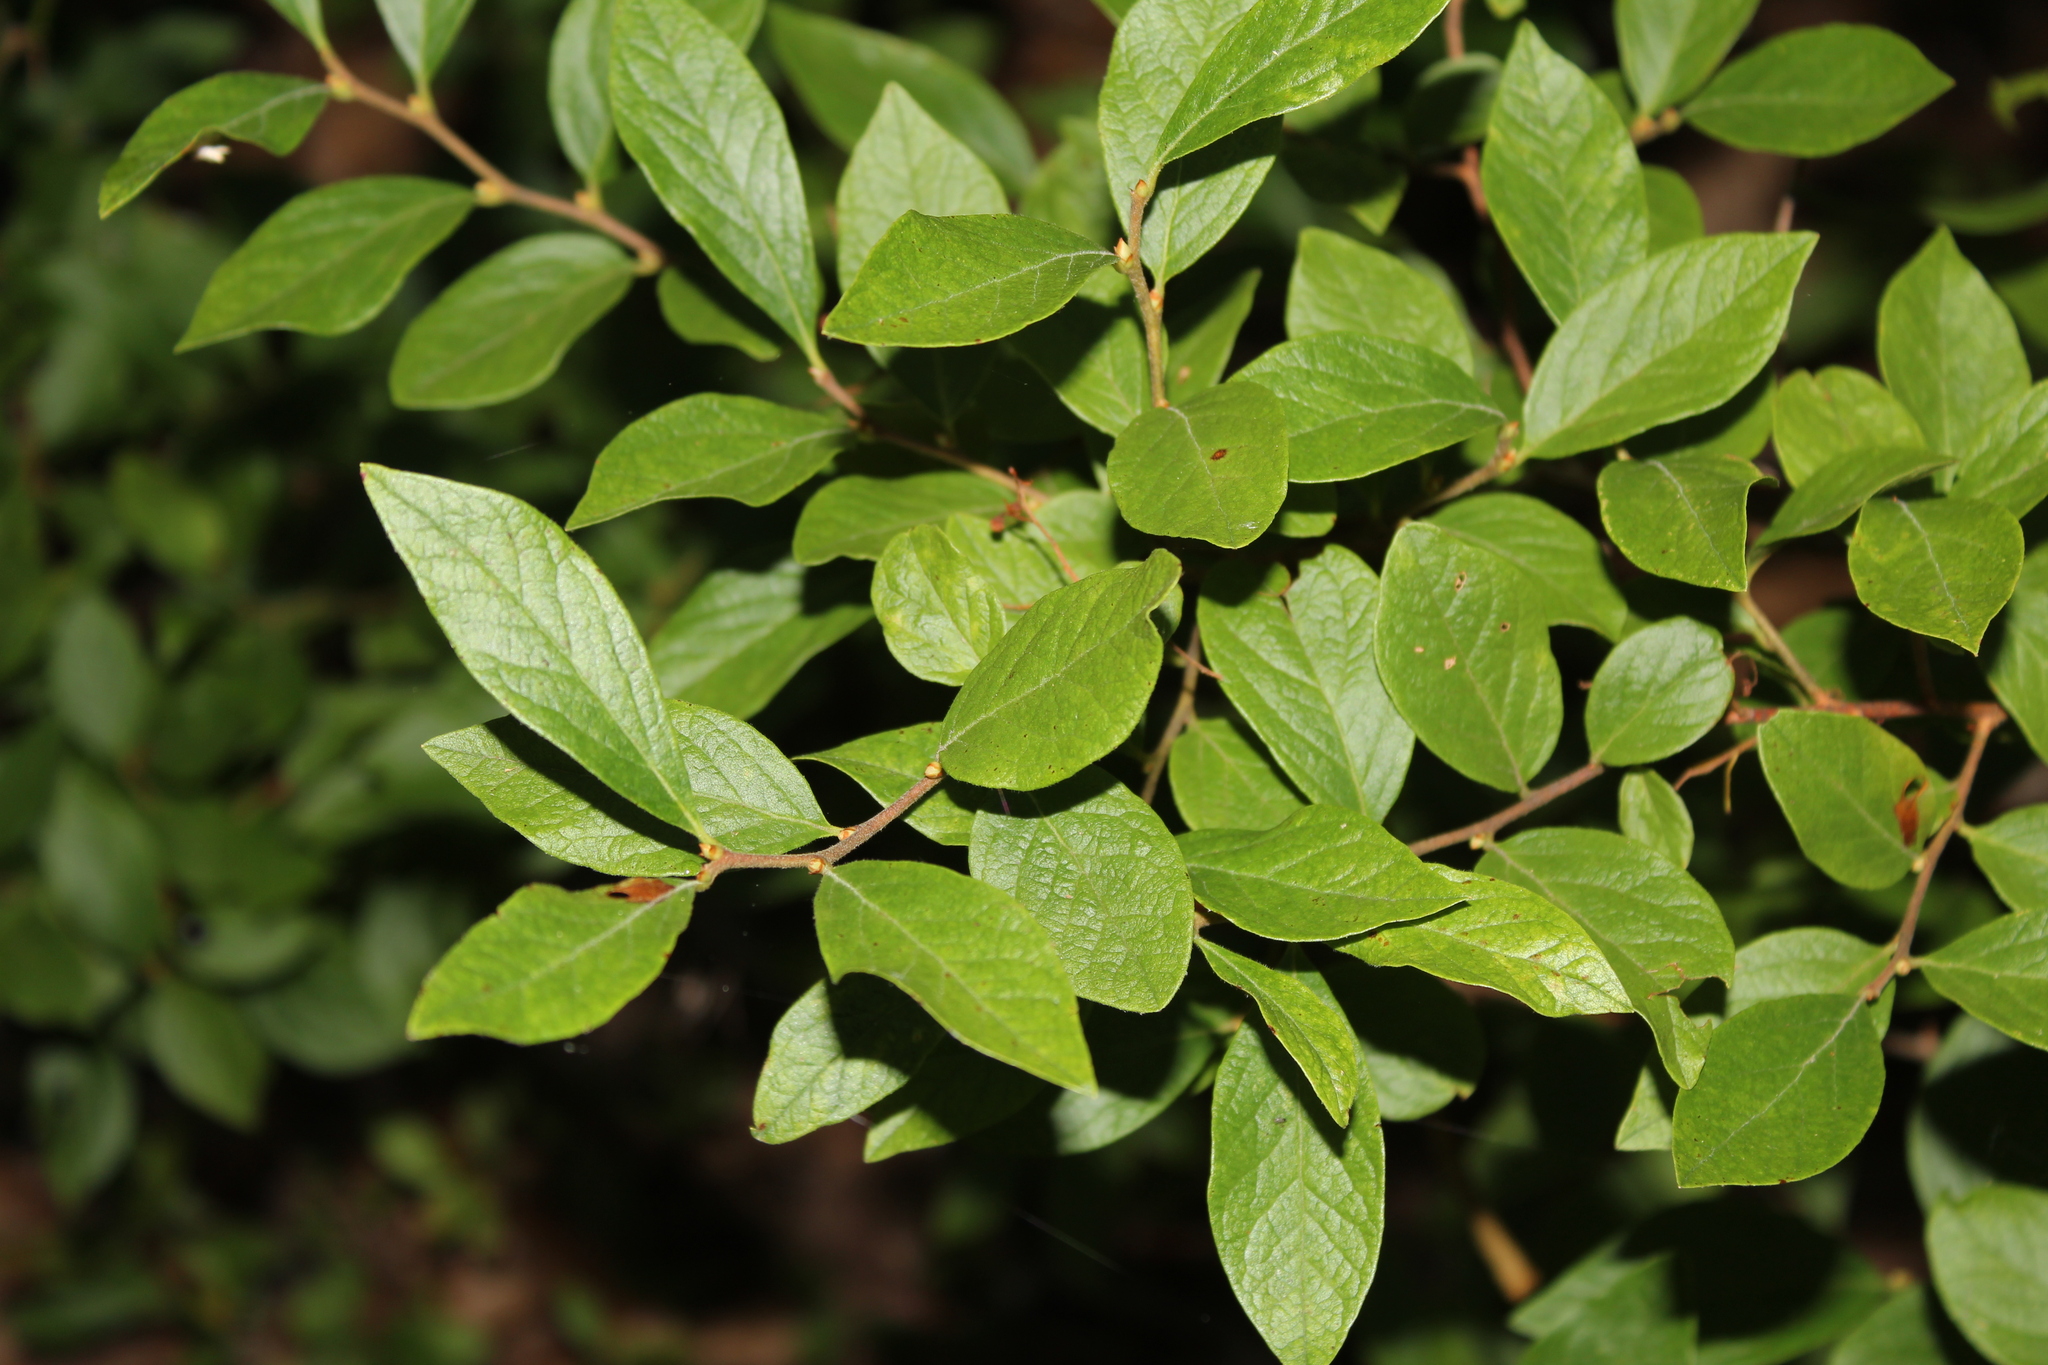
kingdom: Plantae
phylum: Tracheophyta
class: Magnoliopsida
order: Ericales
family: Ericaceae
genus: Gaylussacia
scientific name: Gaylussacia baccata
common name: Black huckleberry
